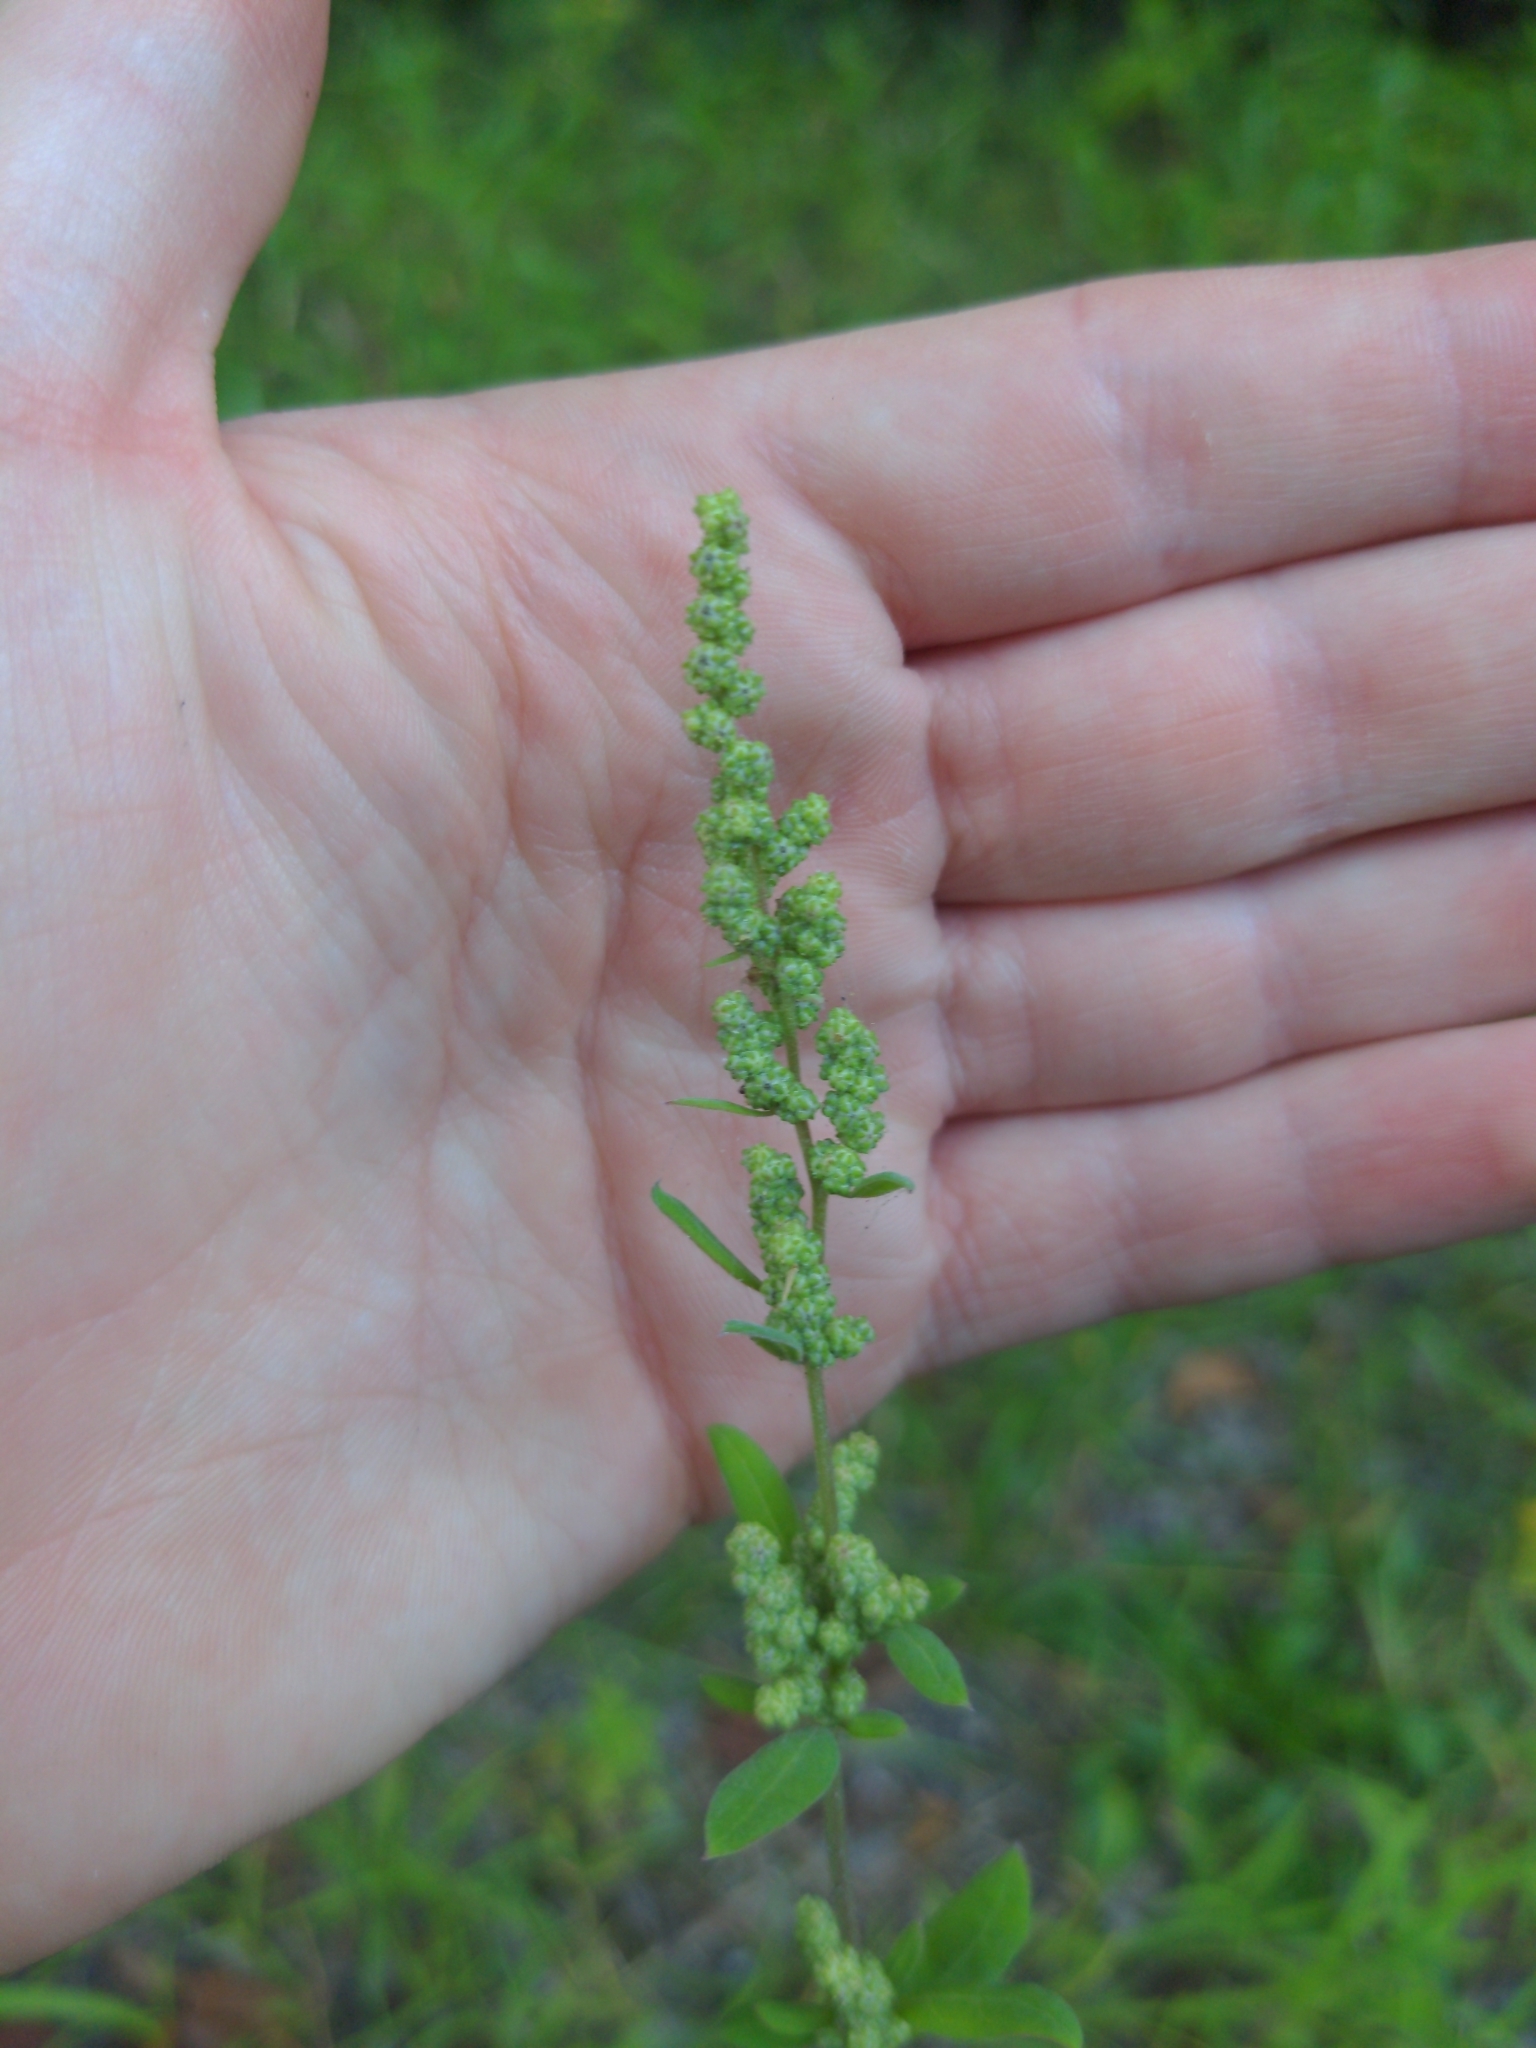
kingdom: Plantae
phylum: Tracheophyta
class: Magnoliopsida
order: Caryophyllales
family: Amaranthaceae
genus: Chenopodium
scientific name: Chenopodium album
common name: Fat-hen
